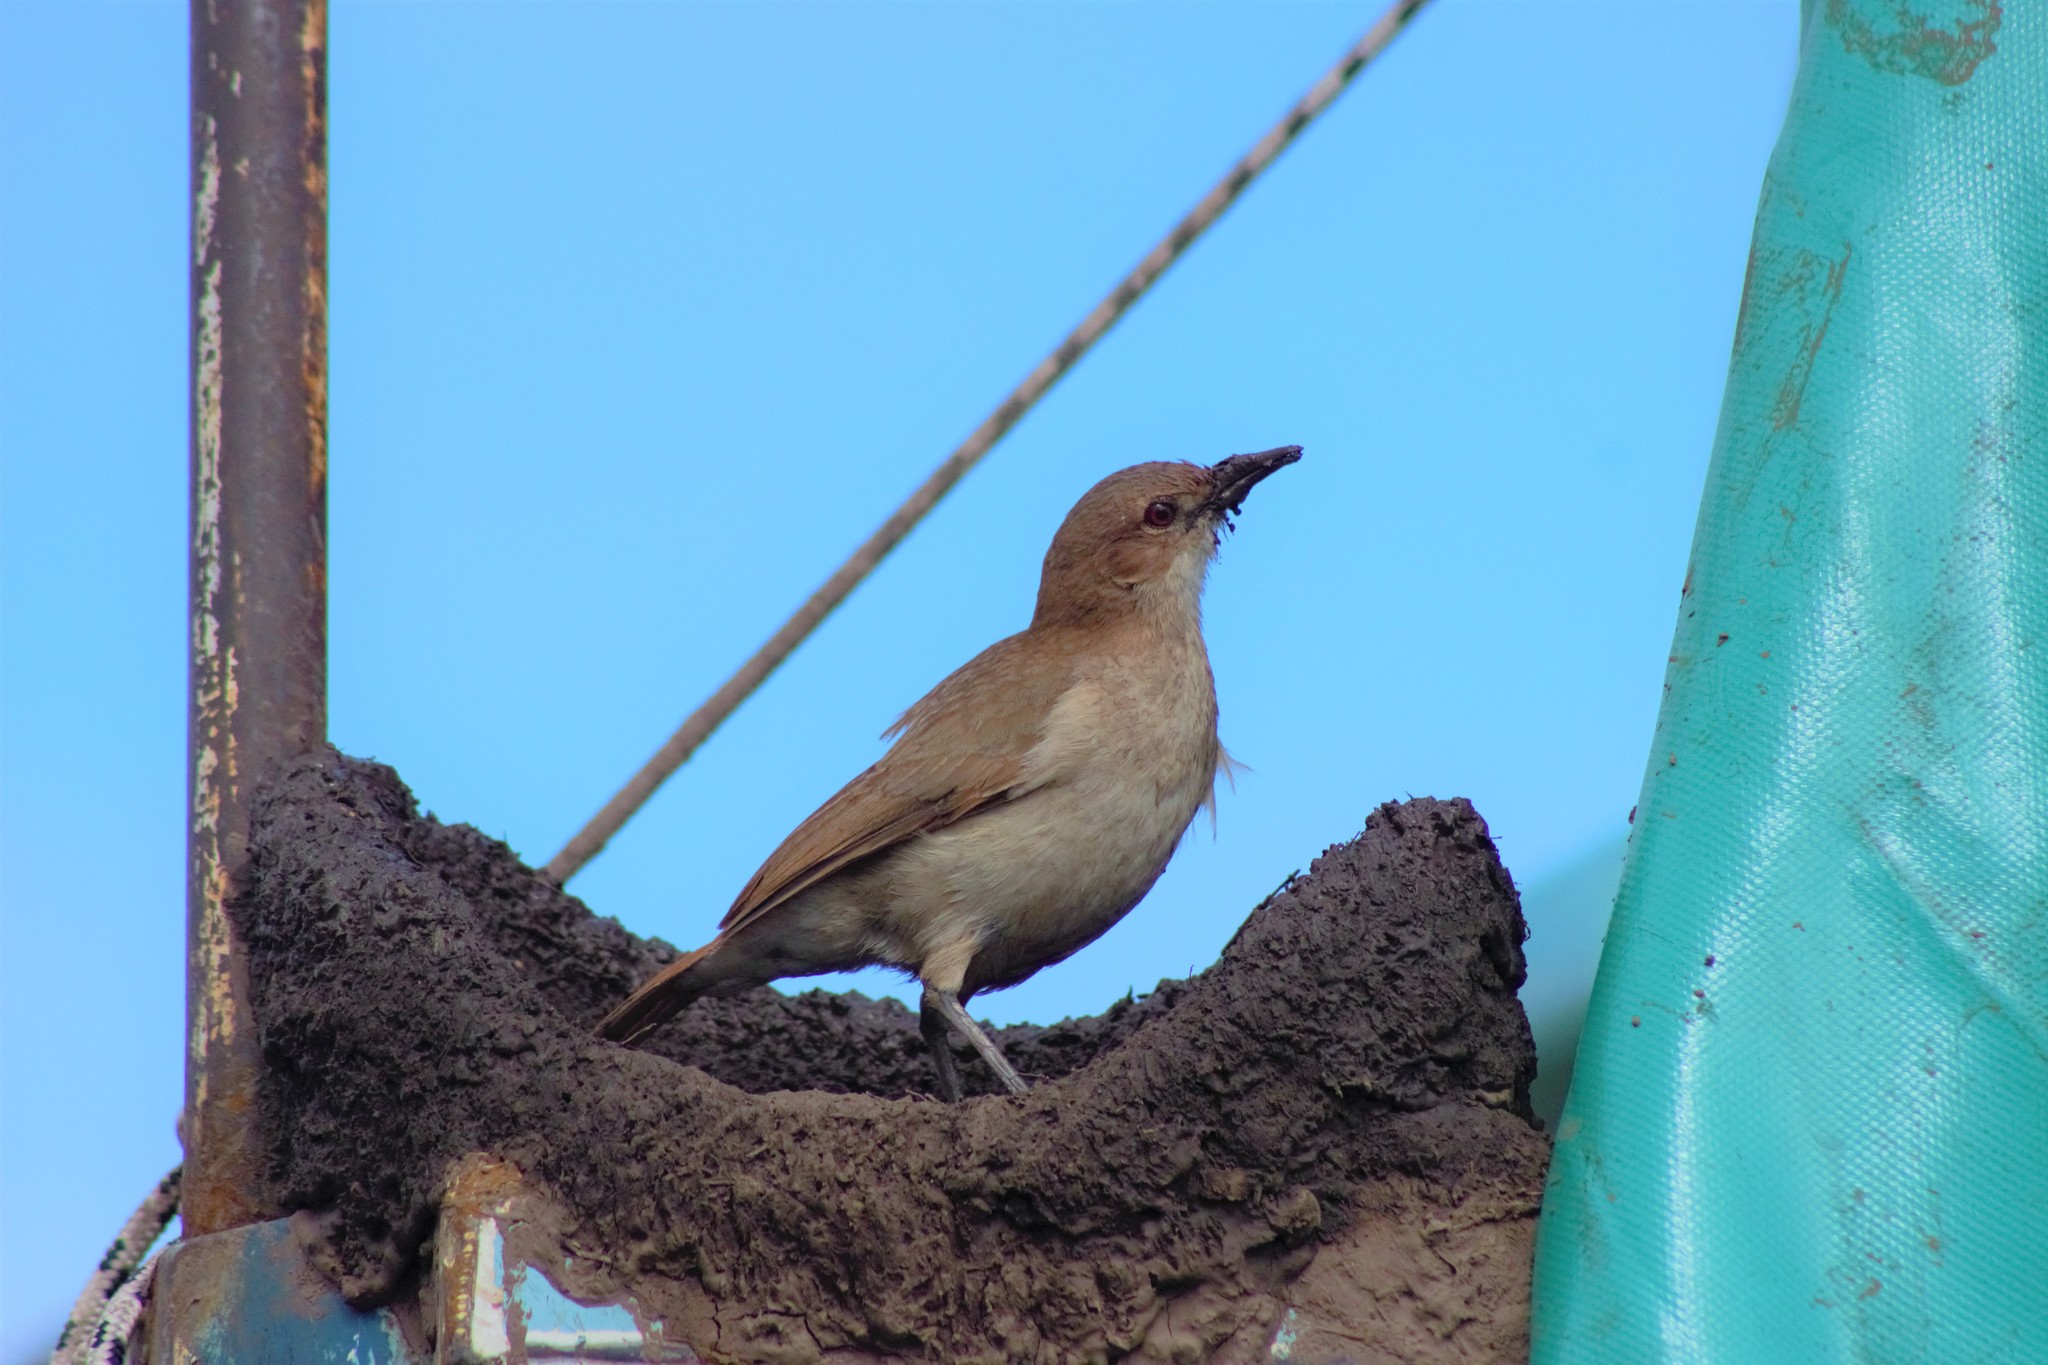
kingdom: Animalia
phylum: Chordata
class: Aves
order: Passeriformes
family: Furnariidae
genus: Furnarius
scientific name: Furnarius rufus
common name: Rufous hornero
